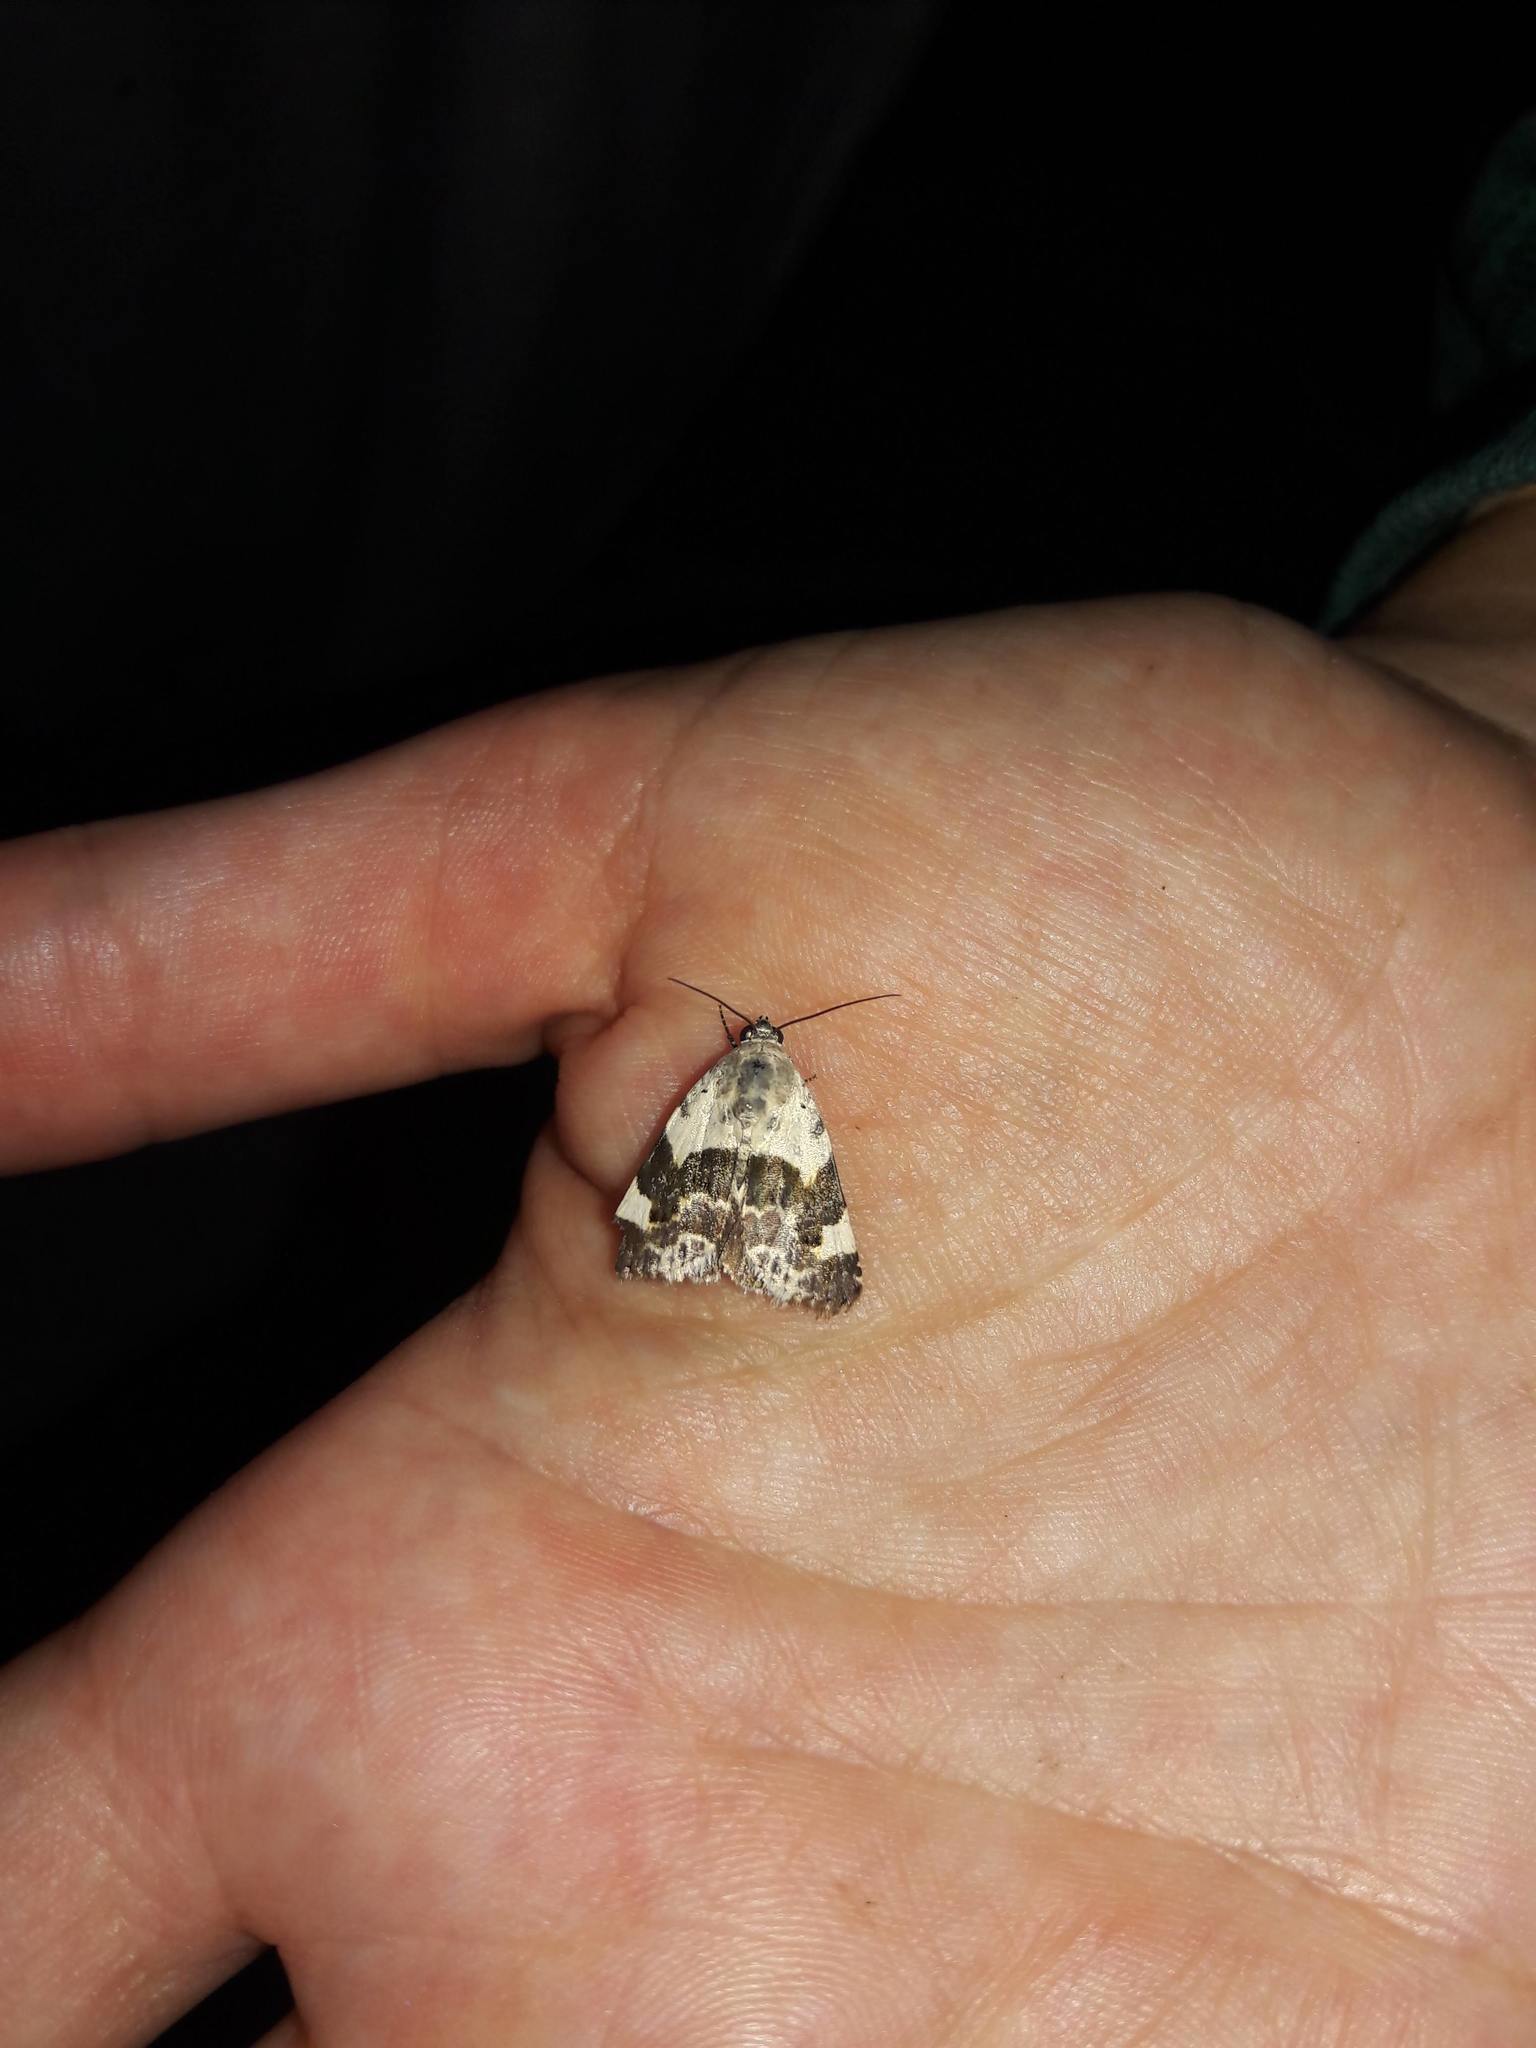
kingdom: Animalia
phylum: Arthropoda
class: Insecta
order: Lepidoptera
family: Noctuidae
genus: Acontia
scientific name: Acontia lucida
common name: Pale shoulder
